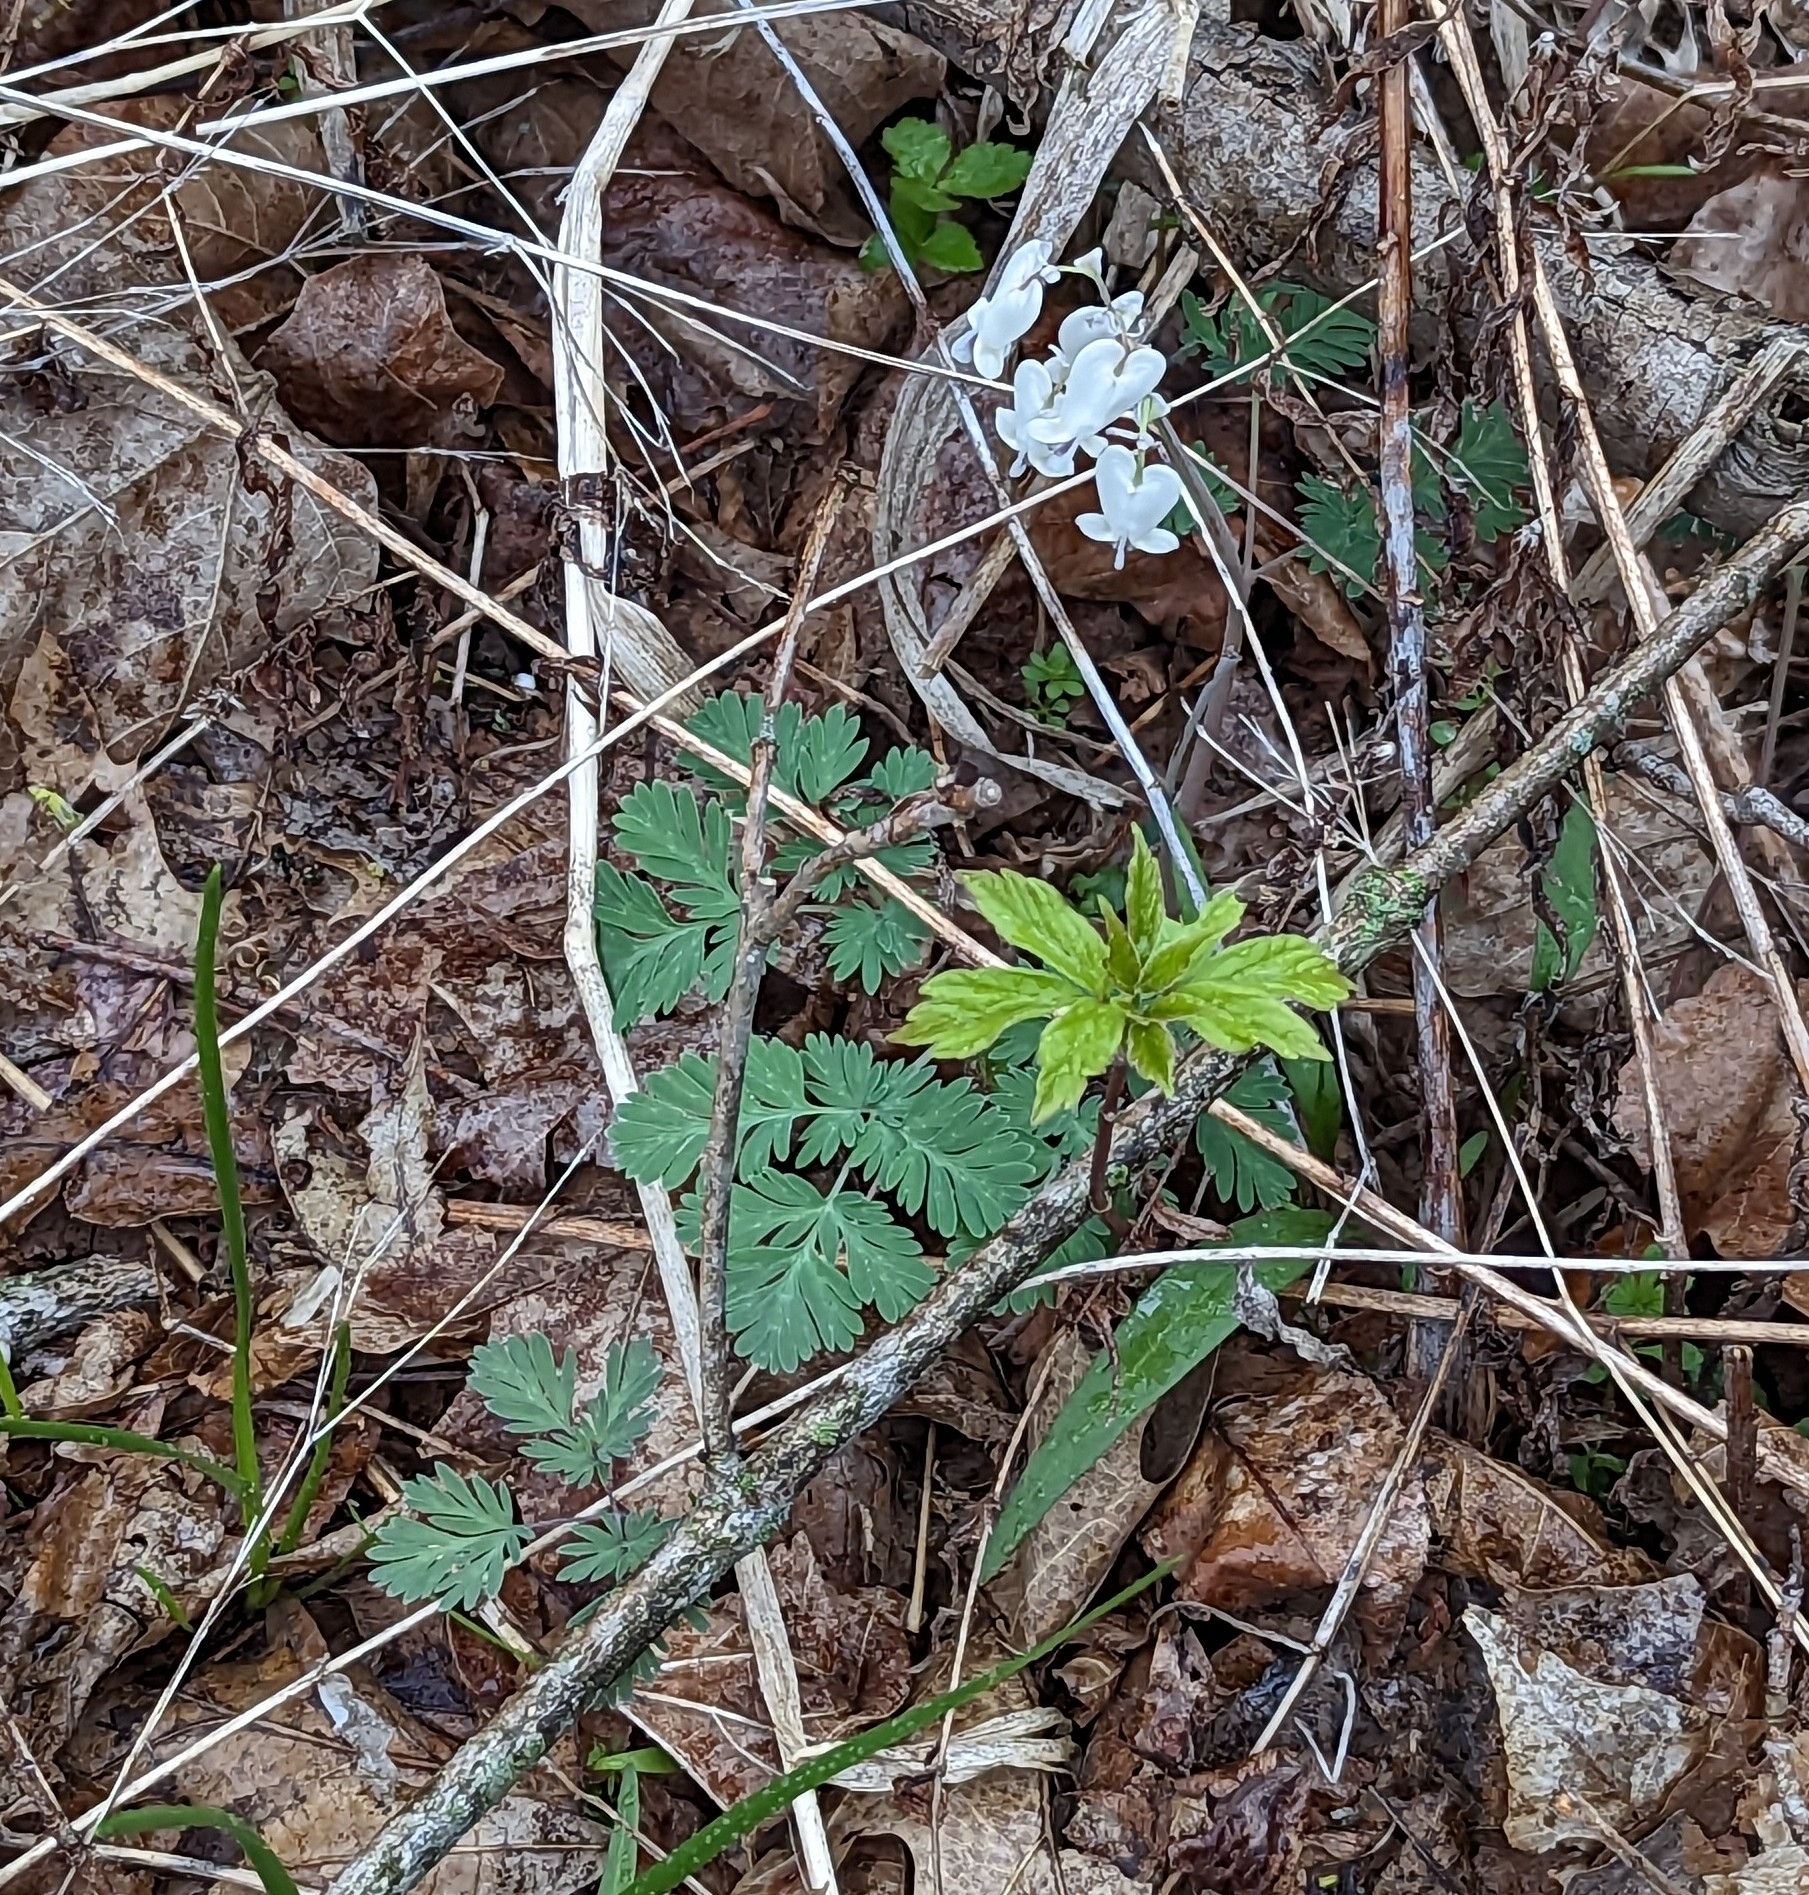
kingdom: Plantae
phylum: Tracheophyta
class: Magnoliopsida
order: Ranunculales
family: Papaveraceae
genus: Dicentra
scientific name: Dicentra canadensis
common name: Squirrel-corn
